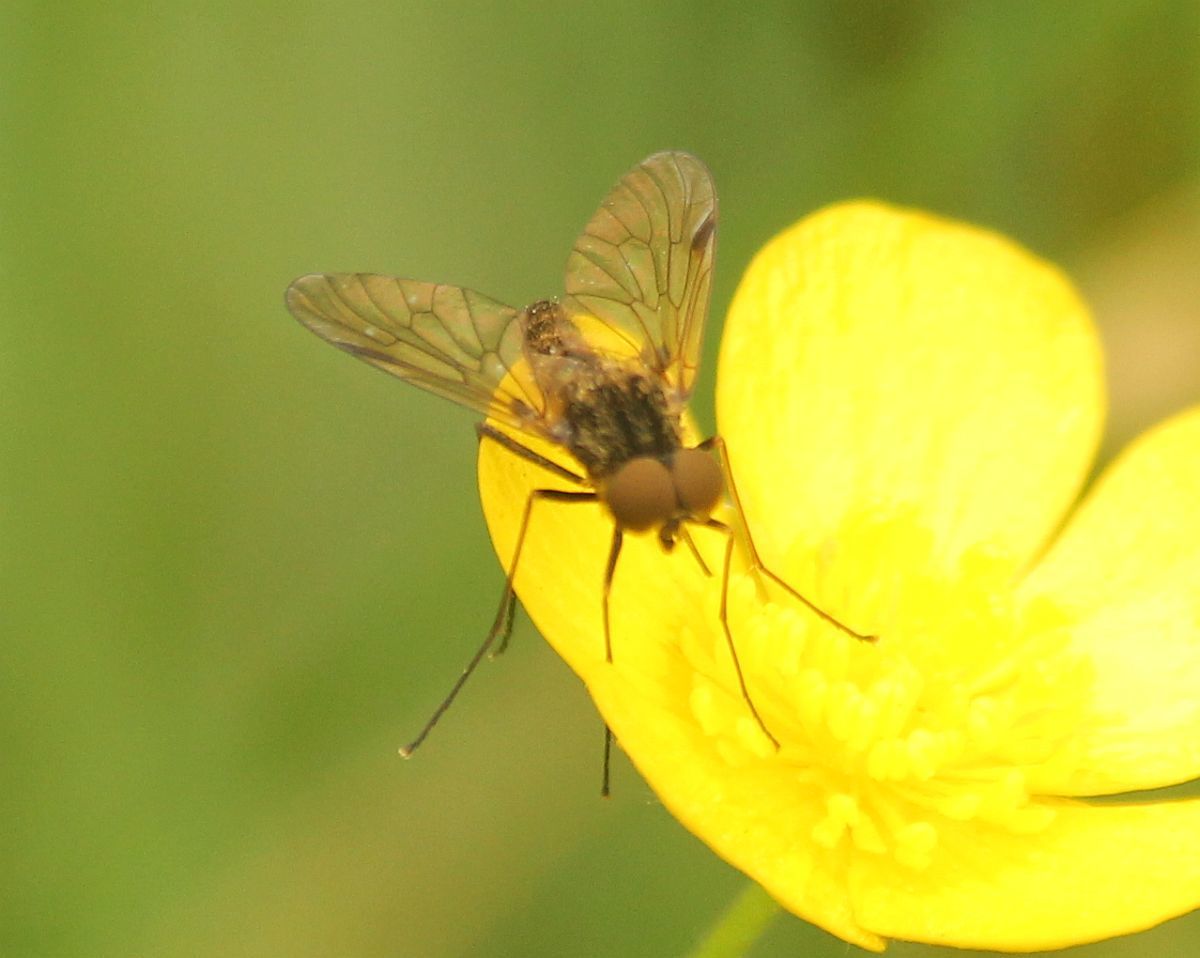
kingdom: Animalia
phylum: Arthropoda
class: Insecta
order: Diptera
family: Rhagionidae
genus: Chrysopilus
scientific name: Chrysopilus cristatus
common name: Black snipefly
